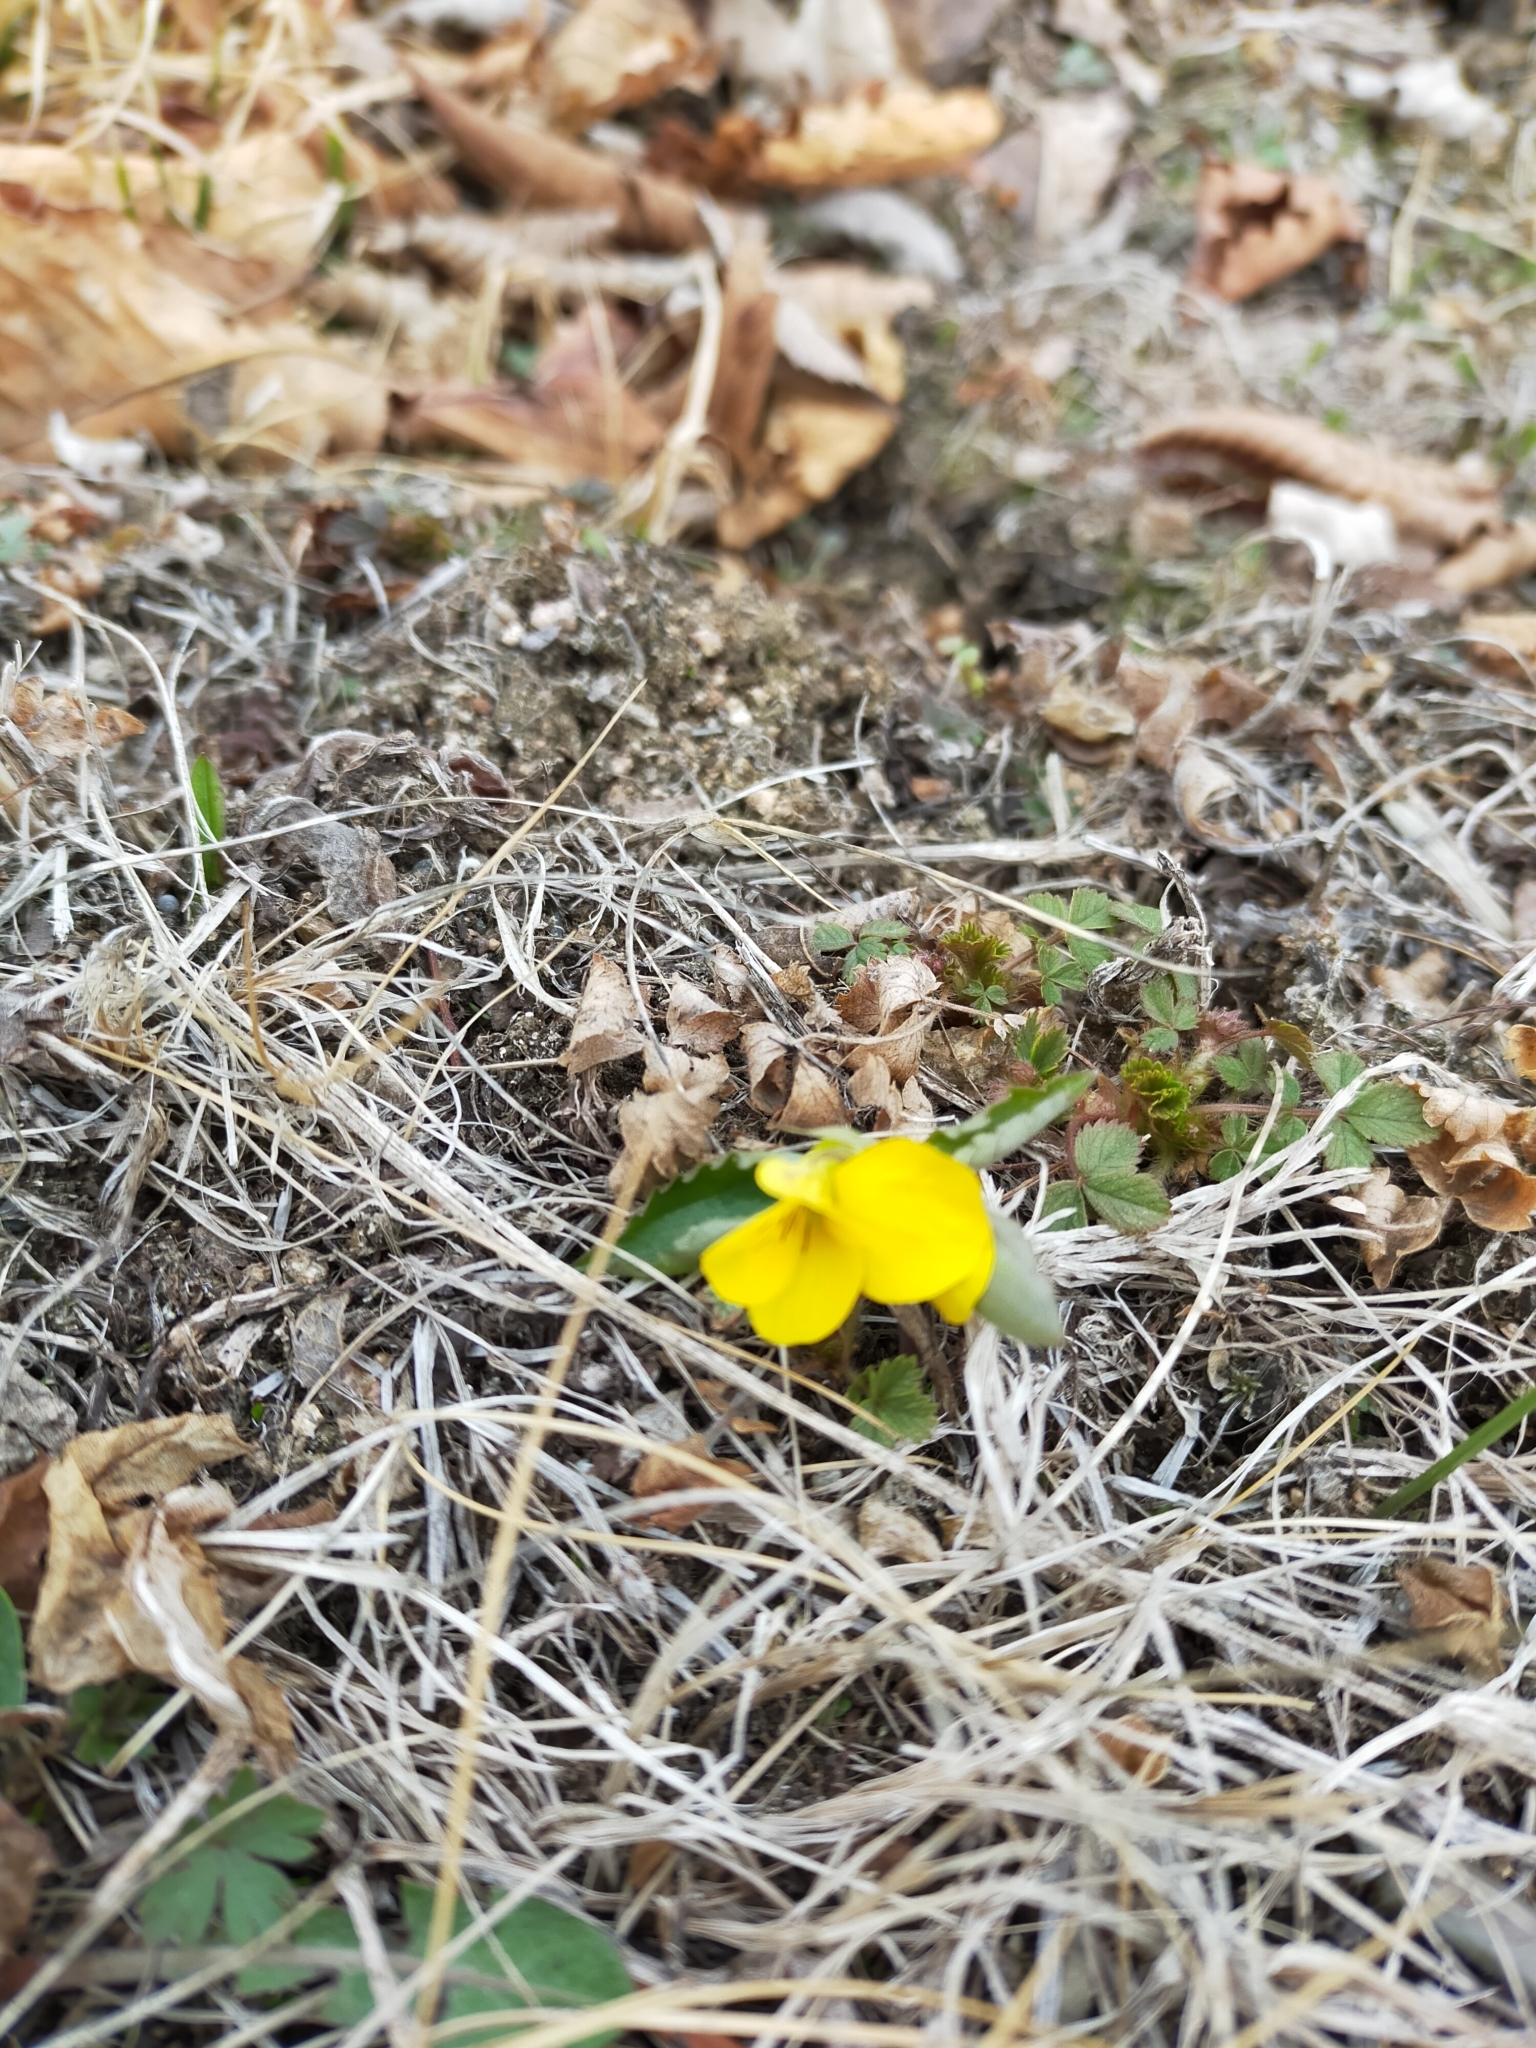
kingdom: Plantae
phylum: Tracheophyta
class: Magnoliopsida
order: Malpighiales
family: Violaceae
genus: Viola
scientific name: Viola orientalis
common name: Golden violet
